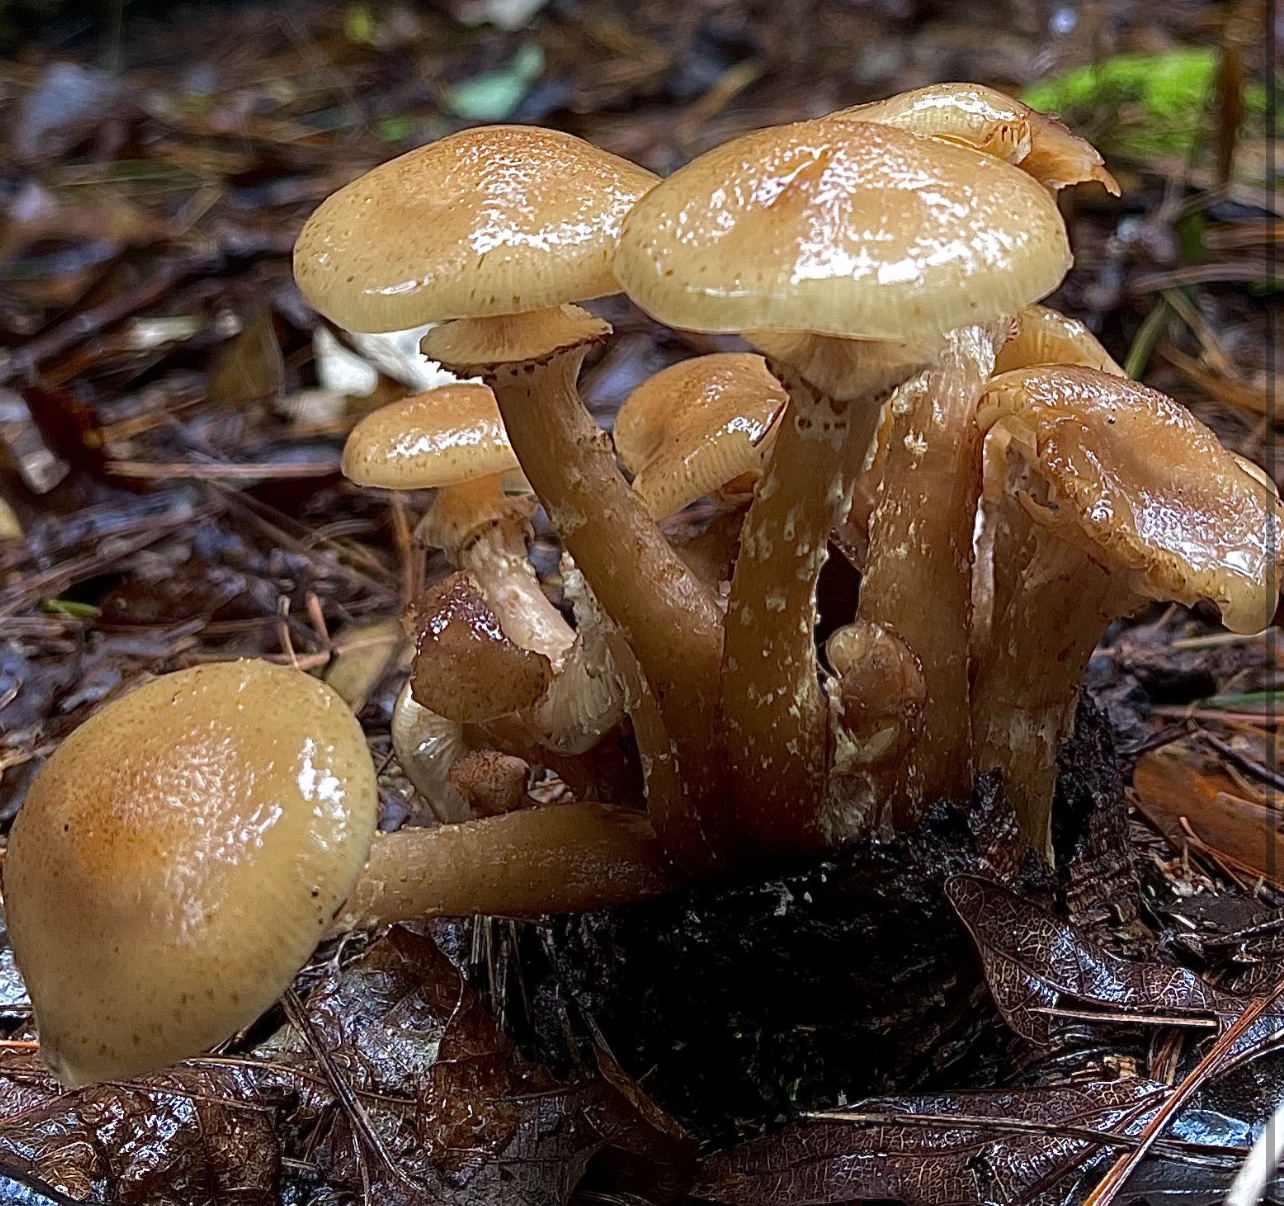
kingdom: Fungi
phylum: Basidiomycota
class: Agaricomycetes
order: Agaricales
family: Physalacriaceae
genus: Armillaria
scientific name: Armillaria mellea
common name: Honey fungus
